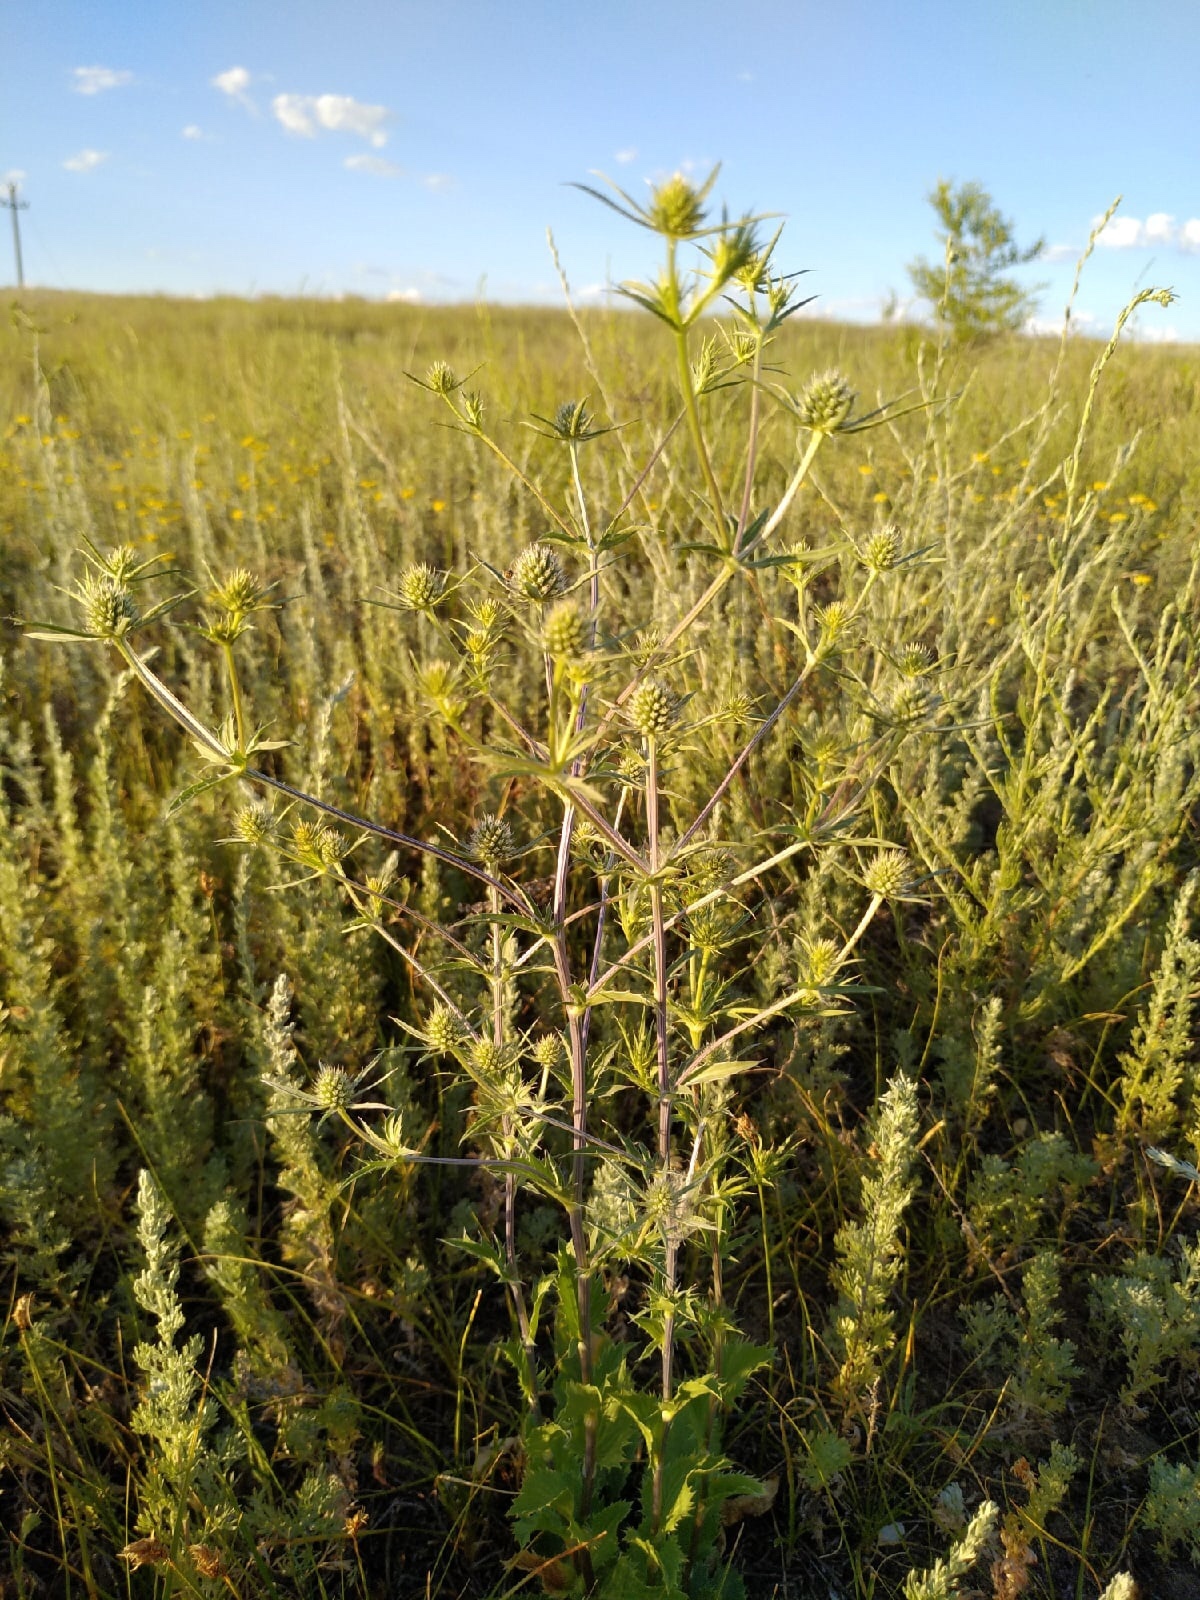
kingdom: Plantae
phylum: Tracheophyta
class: Magnoliopsida
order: Apiales
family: Apiaceae
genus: Eryngium
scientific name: Eryngium planum
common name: Blue eryngo
